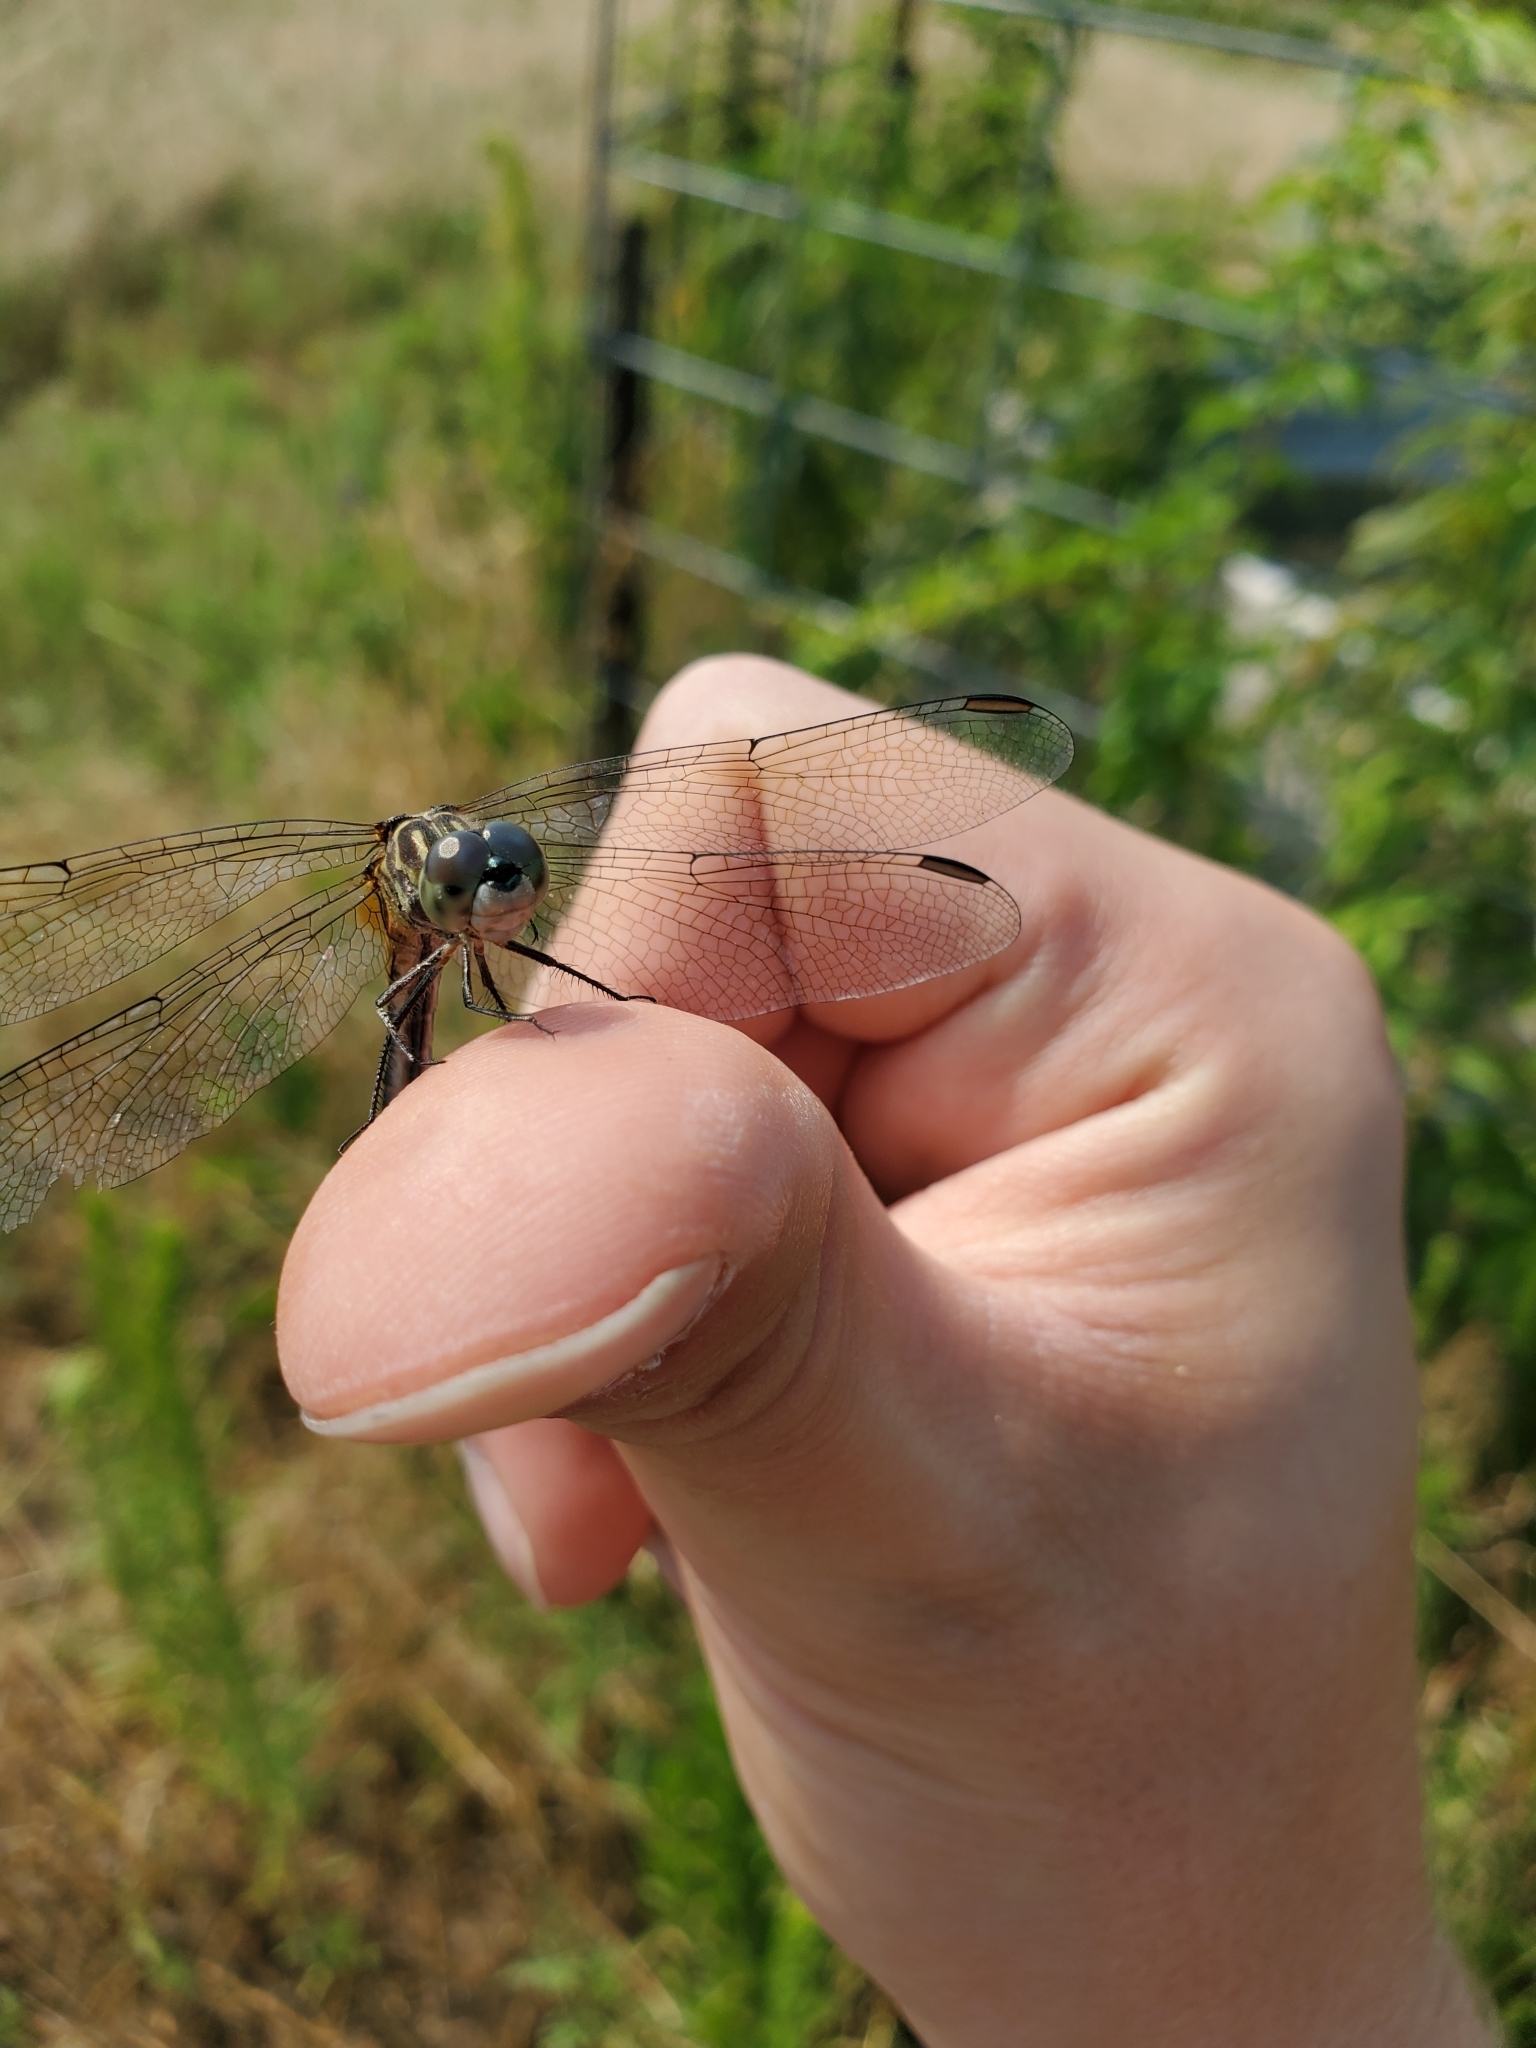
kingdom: Animalia
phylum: Arthropoda
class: Insecta
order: Odonata
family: Libellulidae
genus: Pachydiplax
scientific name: Pachydiplax longipennis
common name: Blue dasher
